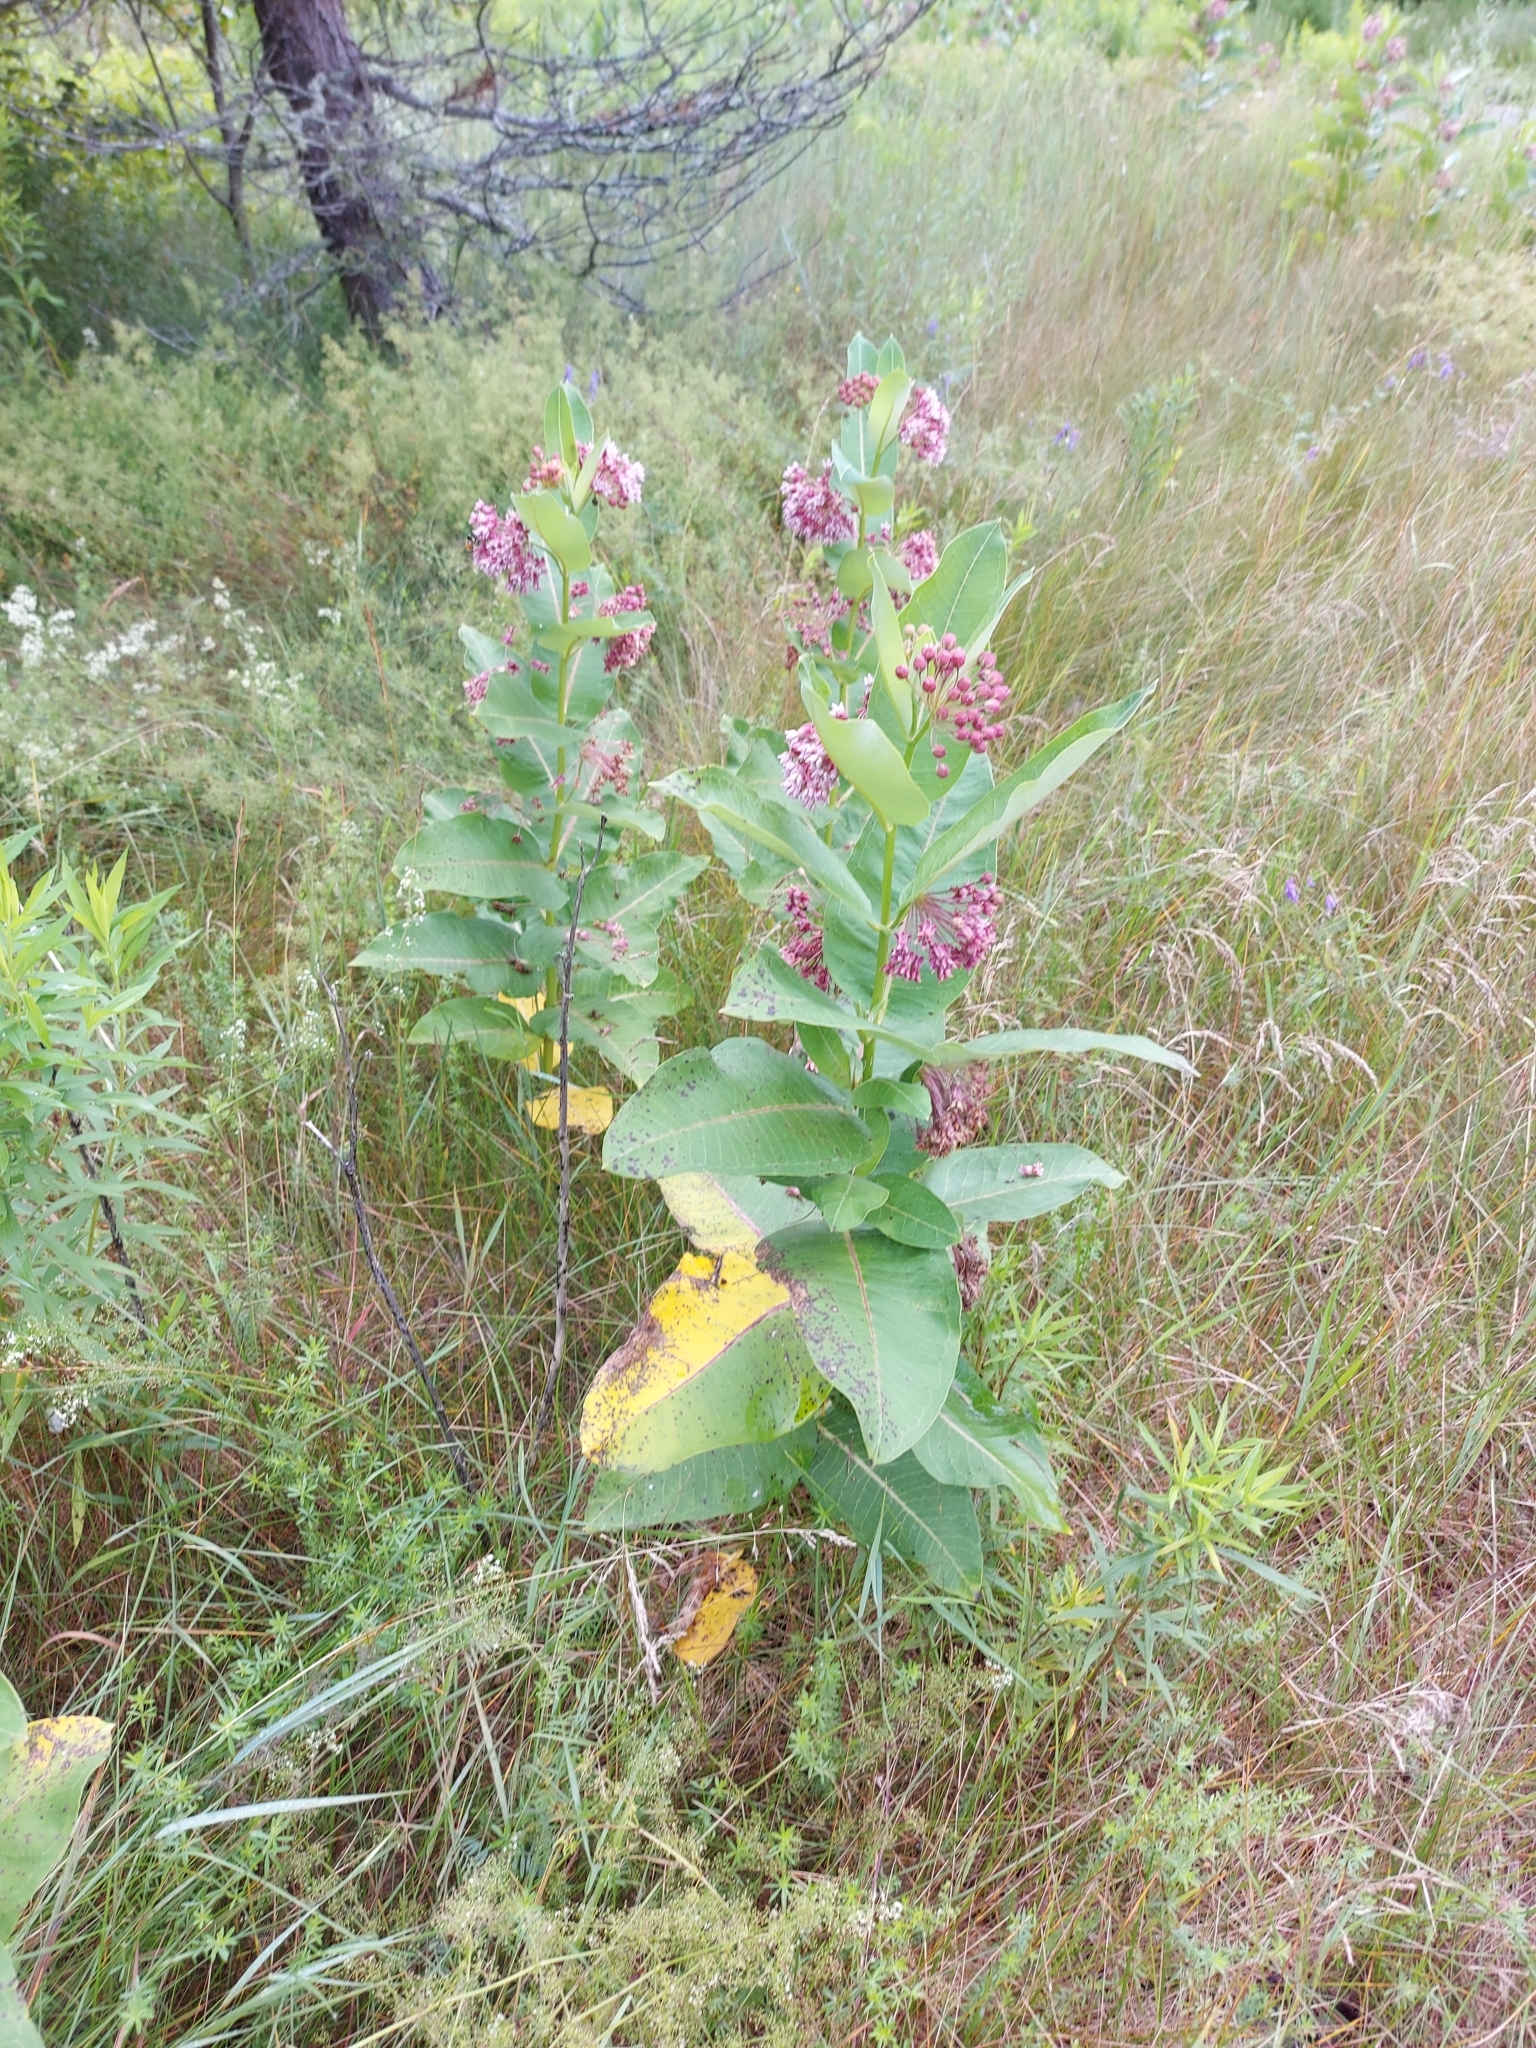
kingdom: Plantae
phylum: Tracheophyta
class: Magnoliopsida
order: Gentianales
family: Apocynaceae
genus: Asclepias
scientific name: Asclepias syriaca
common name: Common milkweed
